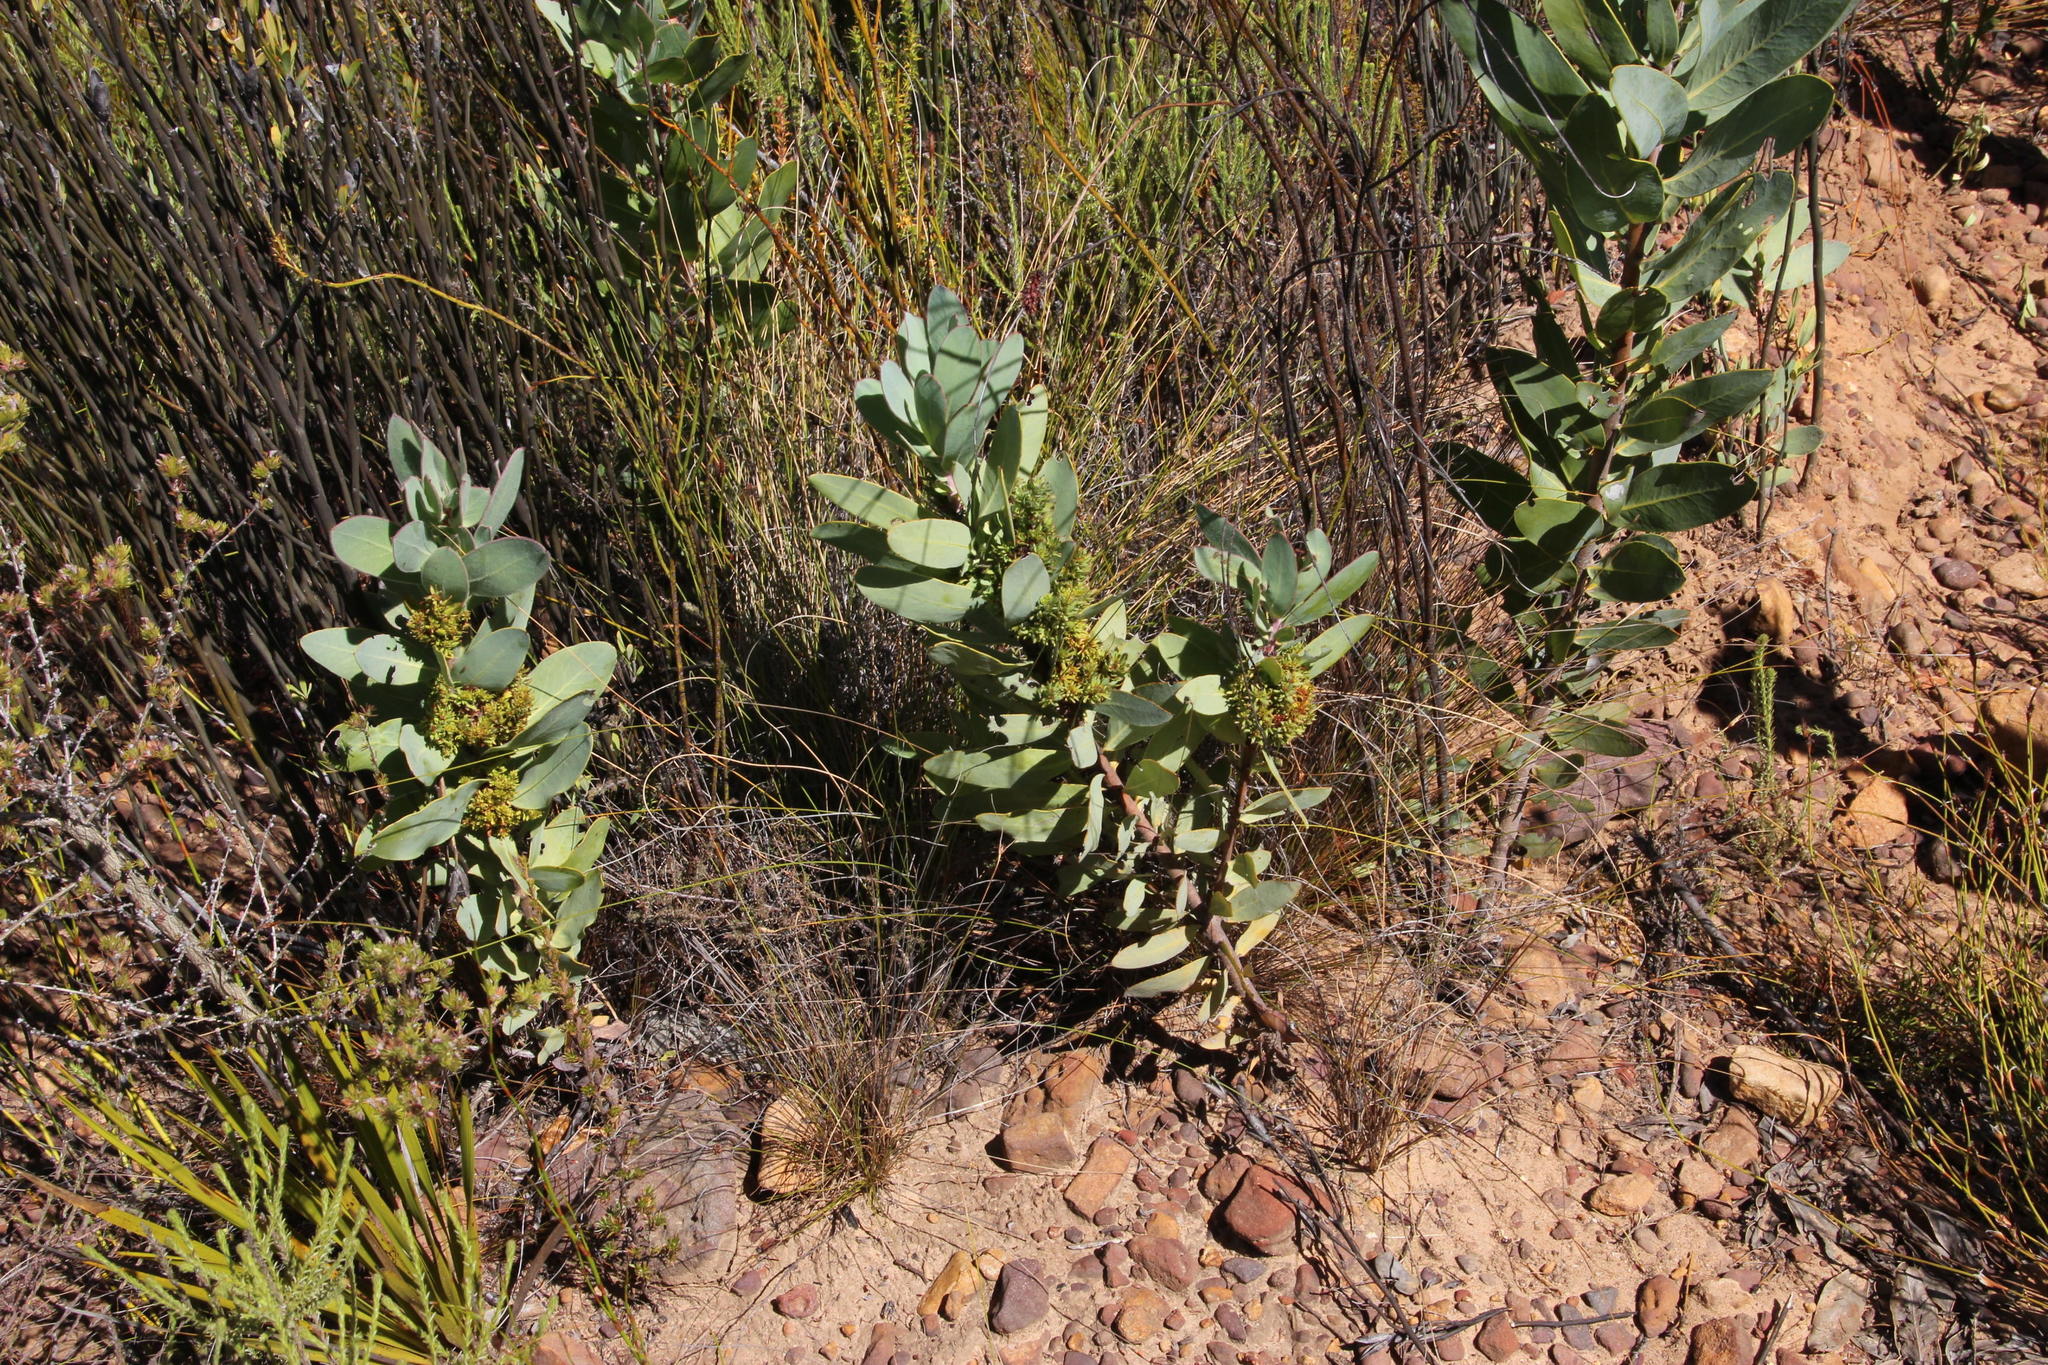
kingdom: Bacteria
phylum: Firmicutes
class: Bacilli
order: Acholeplasmatales
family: Acholeplasmataceae
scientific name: Acholeplasmataceae
